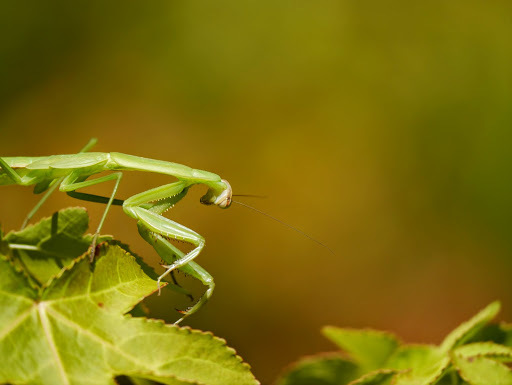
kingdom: Animalia
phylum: Arthropoda
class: Insecta
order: Mantodea
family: Mantidae
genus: Tenodera
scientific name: Tenodera
